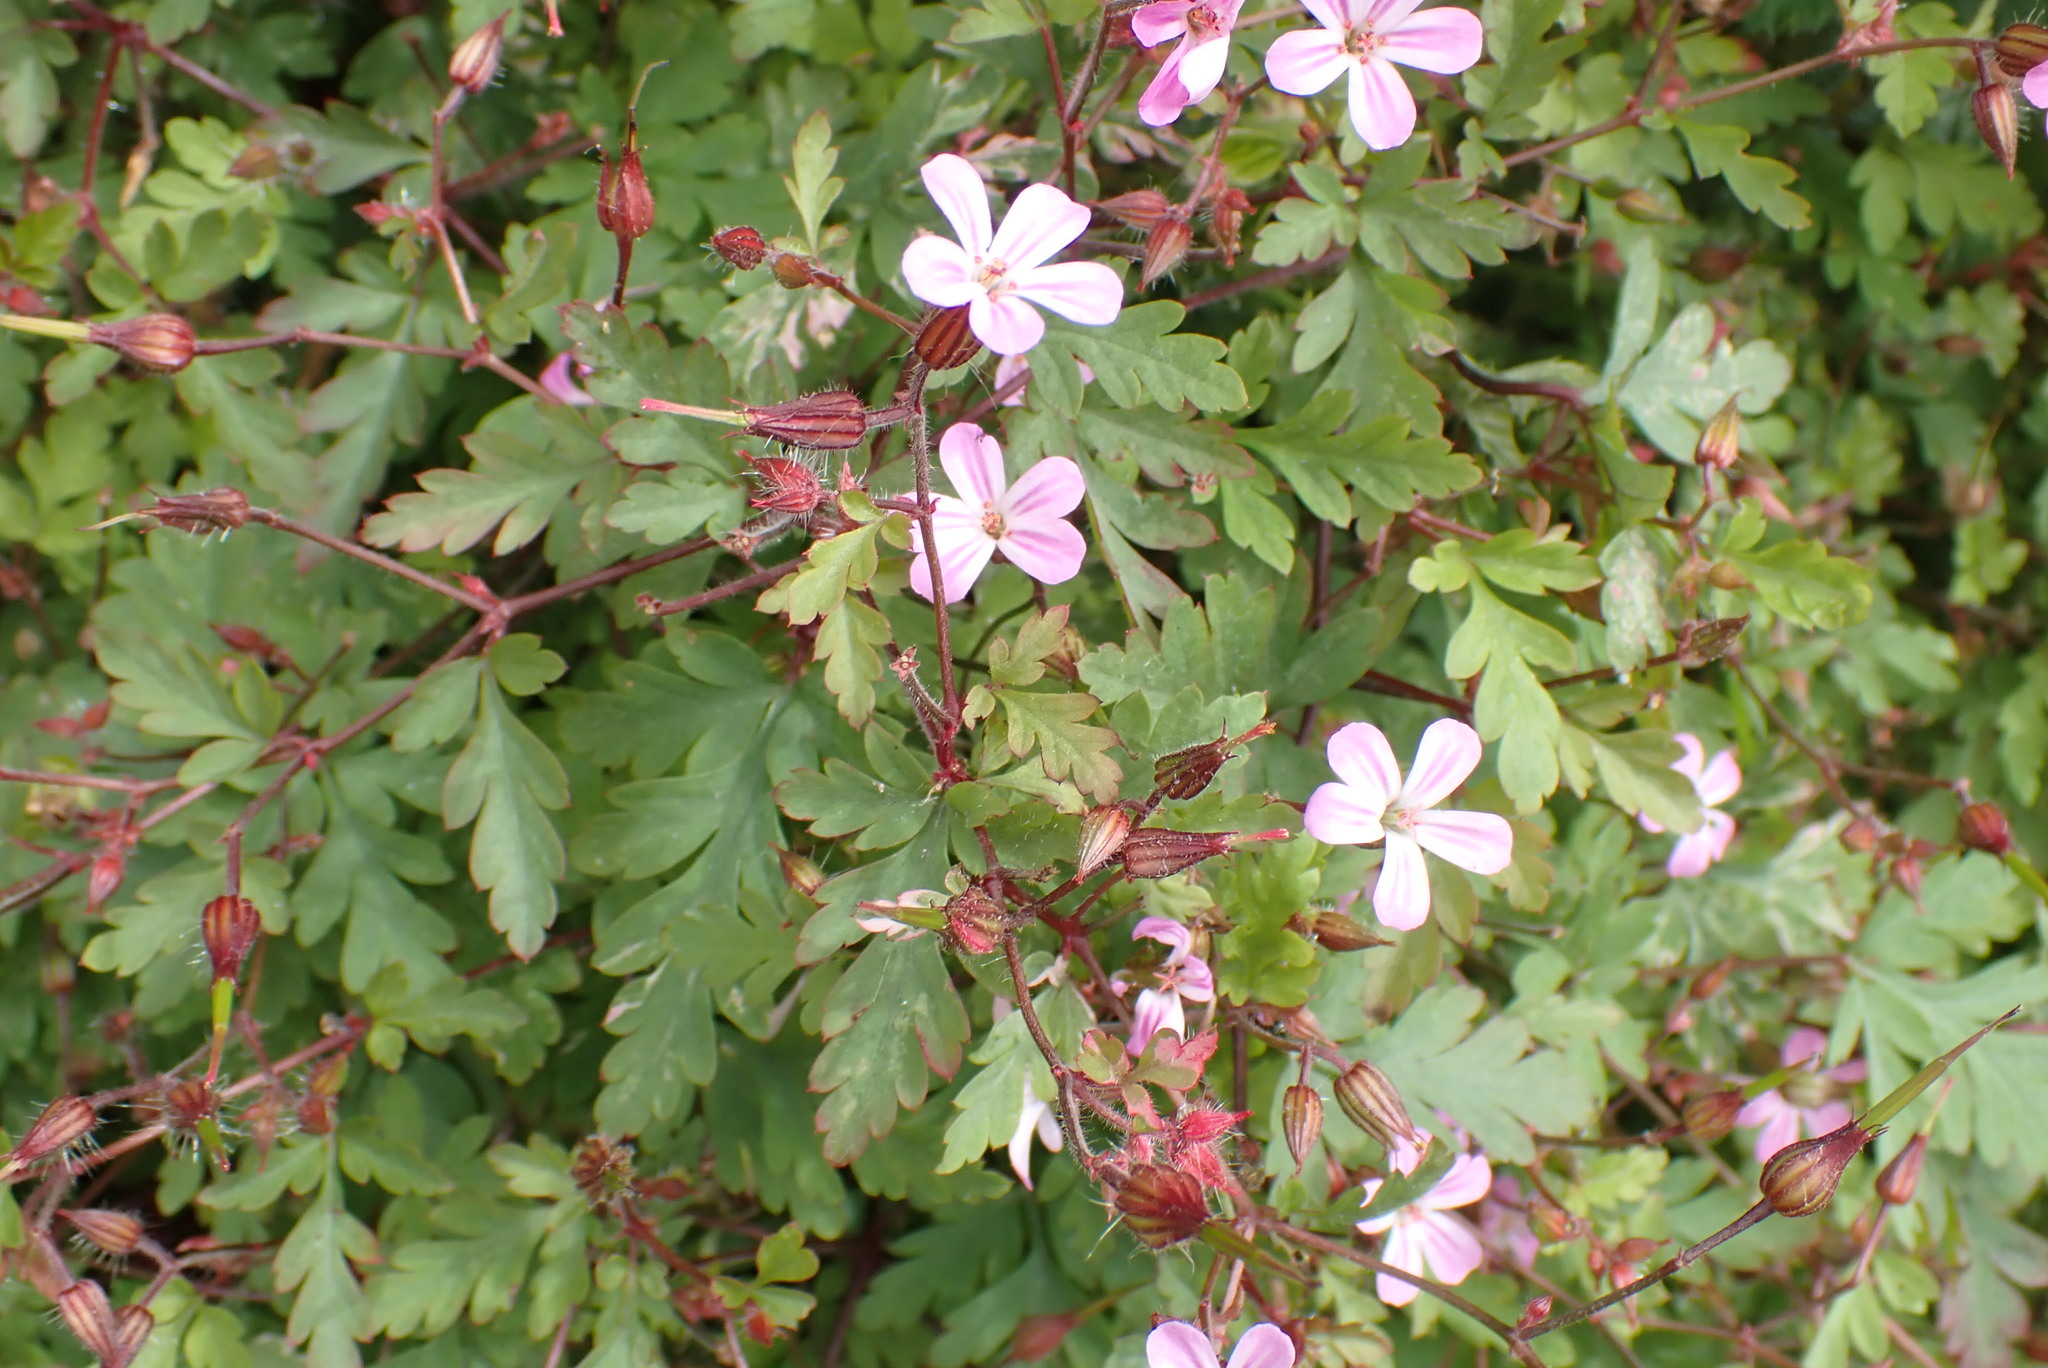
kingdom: Plantae
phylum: Tracheophyta
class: Magnoliopsida
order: Geraniales
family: Geraniaceae
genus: Geranium
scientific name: Geranium robertianum
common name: Herb-robert
